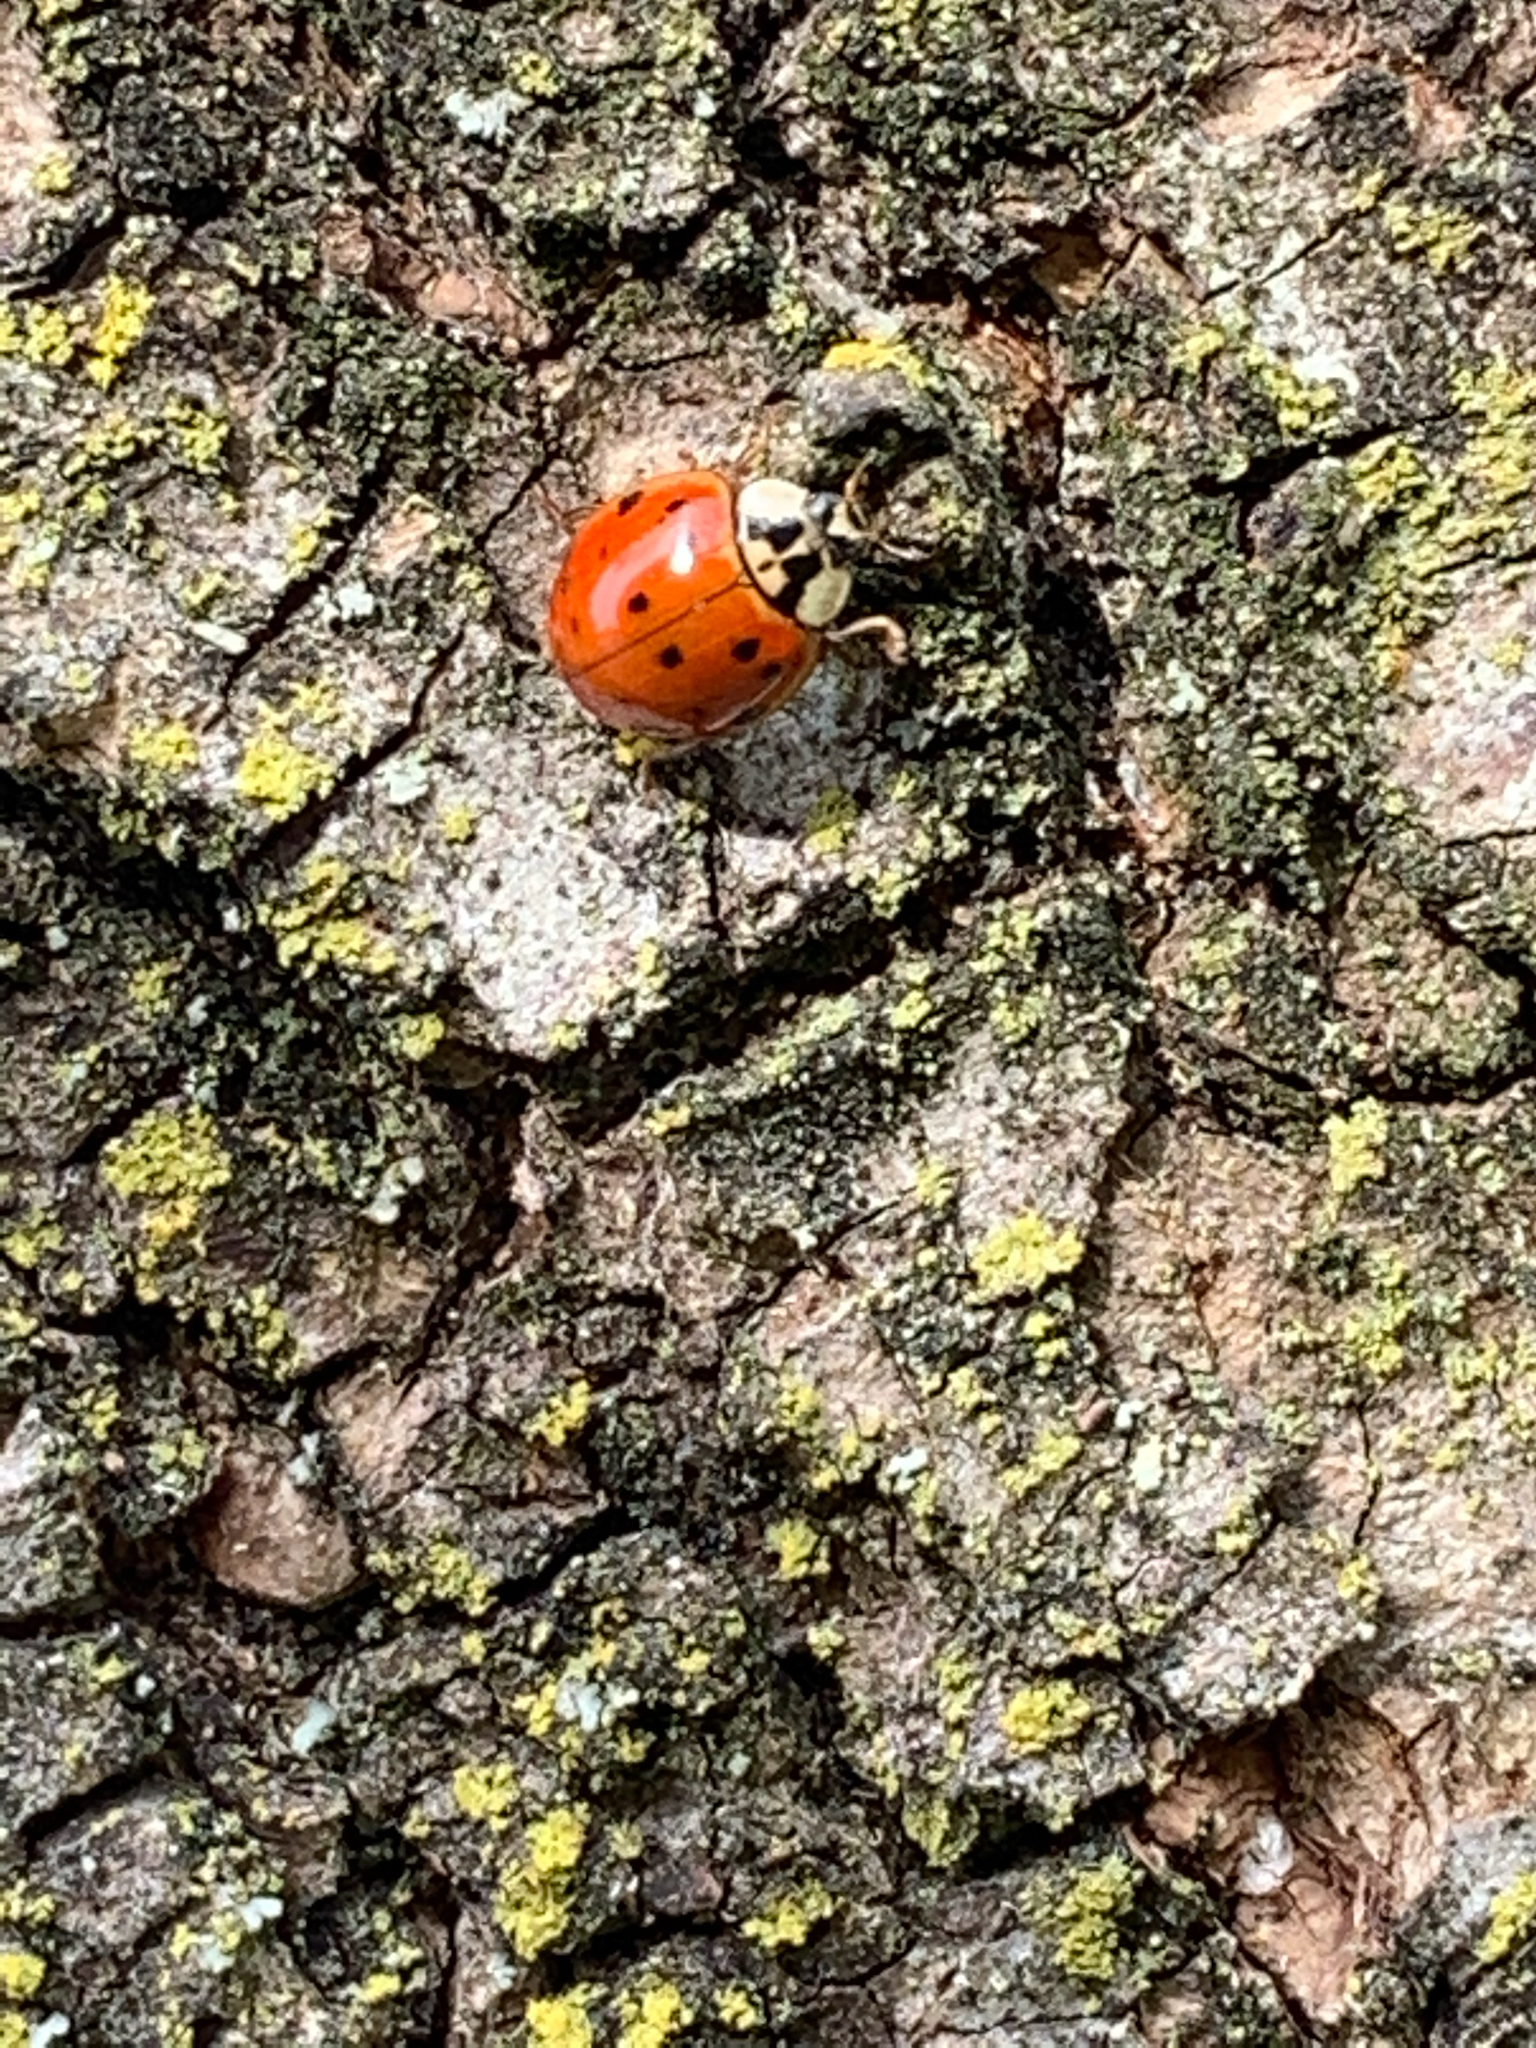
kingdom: Animalia
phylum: Arthropoda
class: Insecta
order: Coleoptera
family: Coccinellidae
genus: Harmonia
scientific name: Harmonia axyridis
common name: Harlequin ladybird
